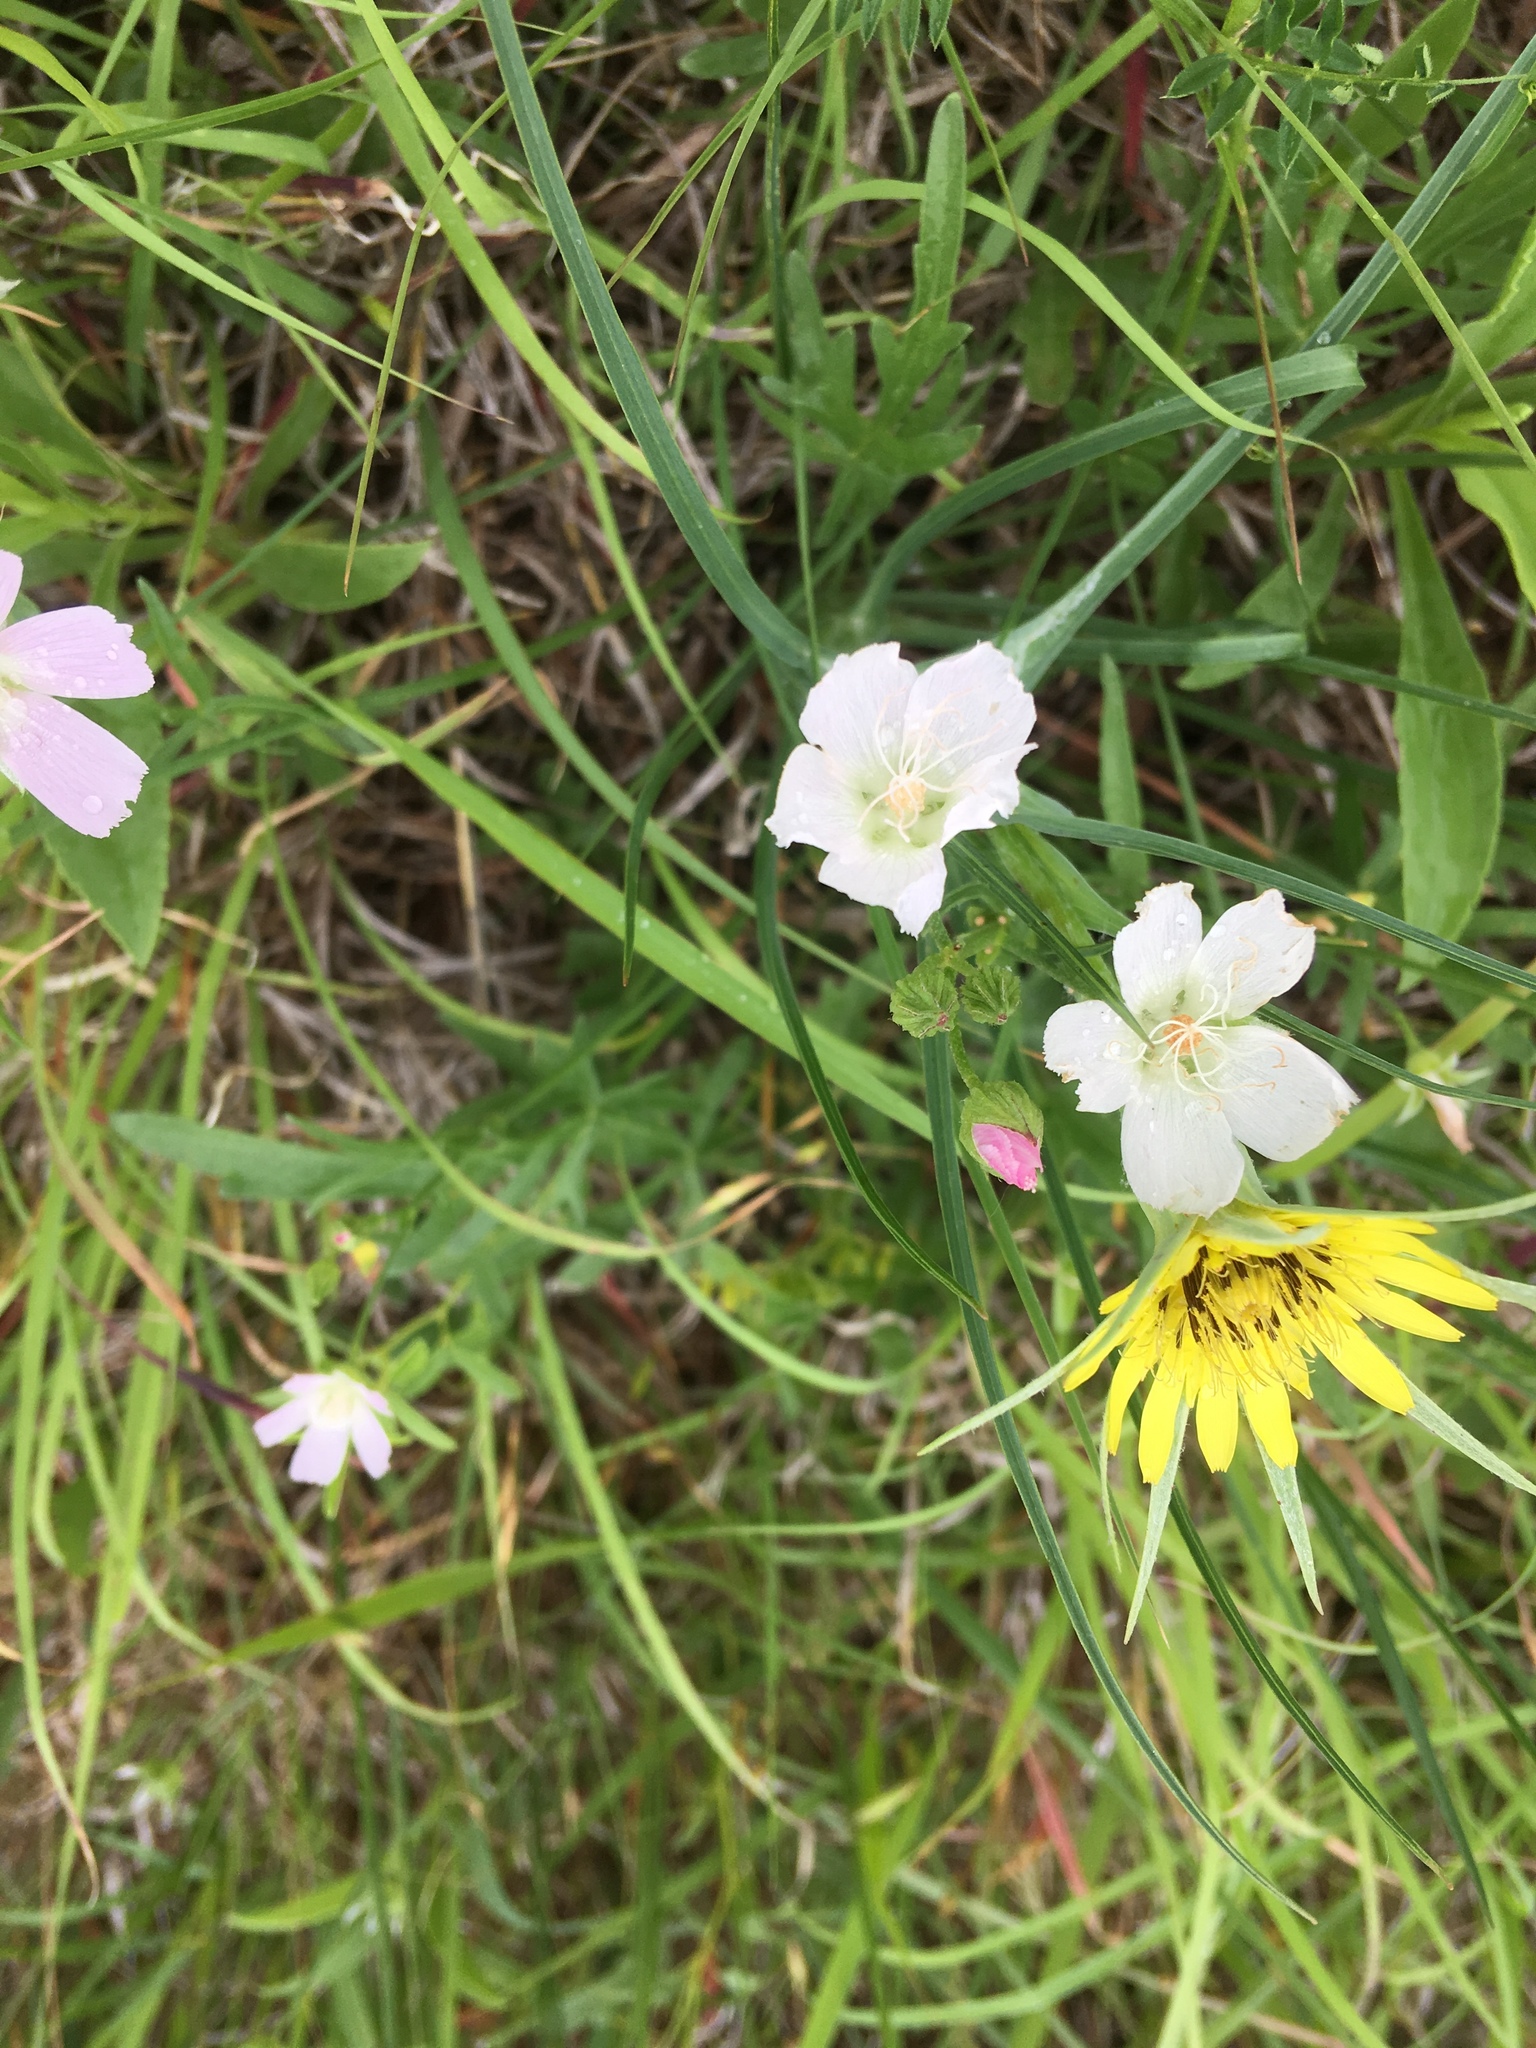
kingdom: Plantae
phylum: Tracheophyta
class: Magnoliopsida
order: Malvales
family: Malvaceae
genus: Callirhoe
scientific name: Callirhoe alcaeoides
